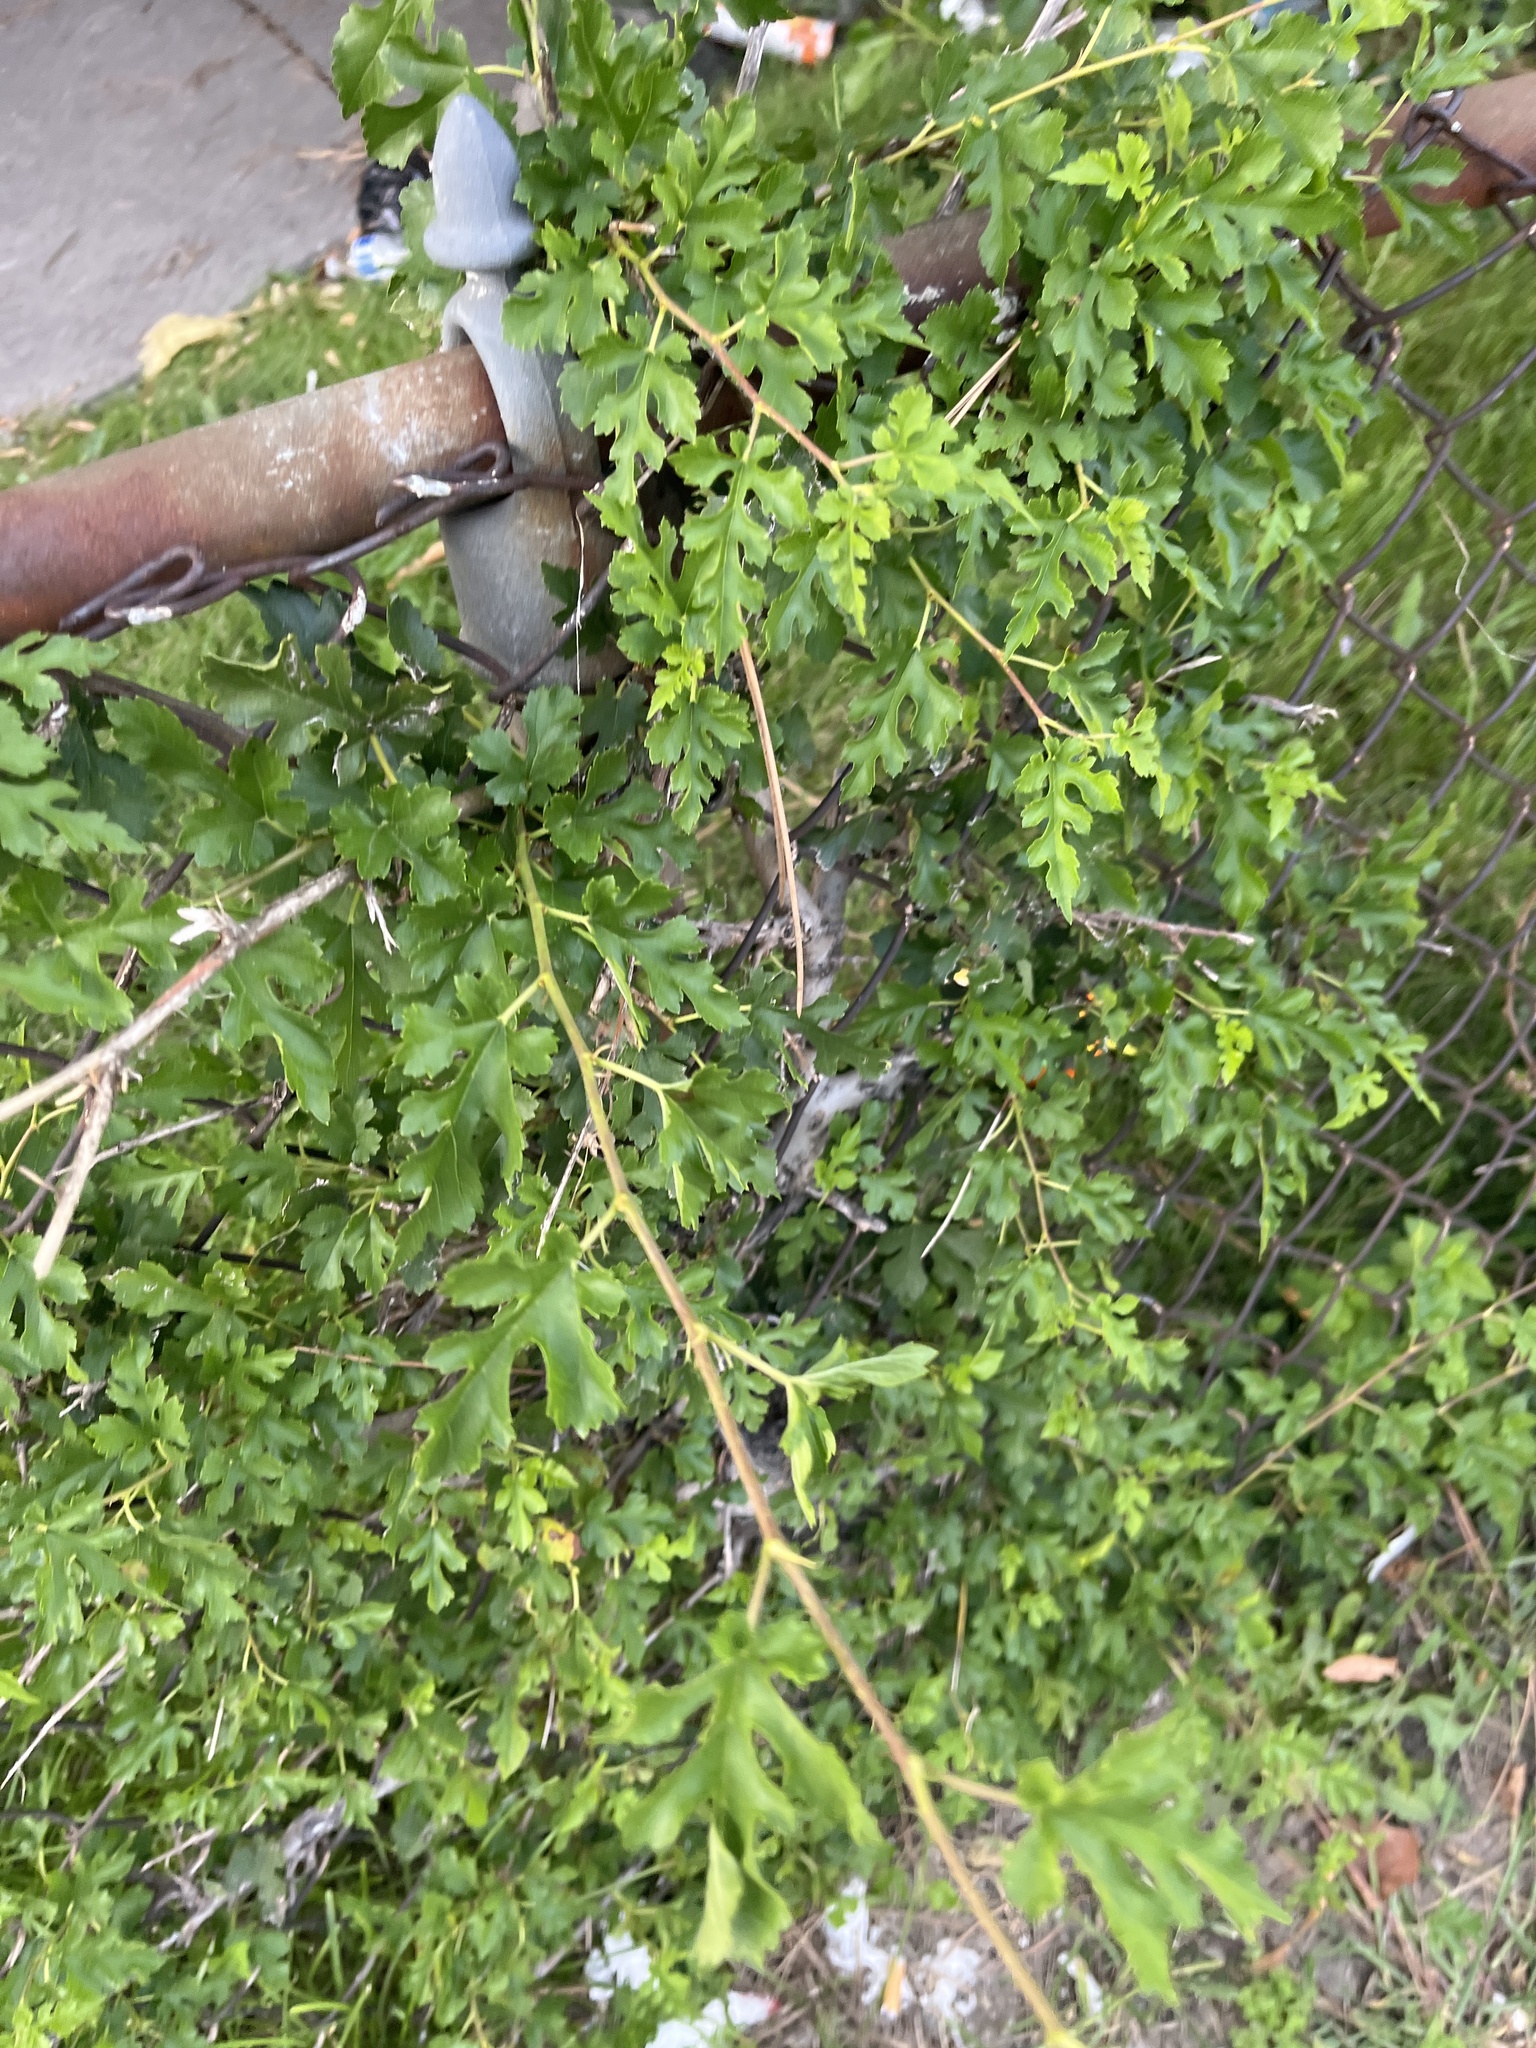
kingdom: Plantae
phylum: Tracheophyta
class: Magnoliopsida
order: Rosales
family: Moraceae
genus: Morus
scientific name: Morus alba
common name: White mulberry
